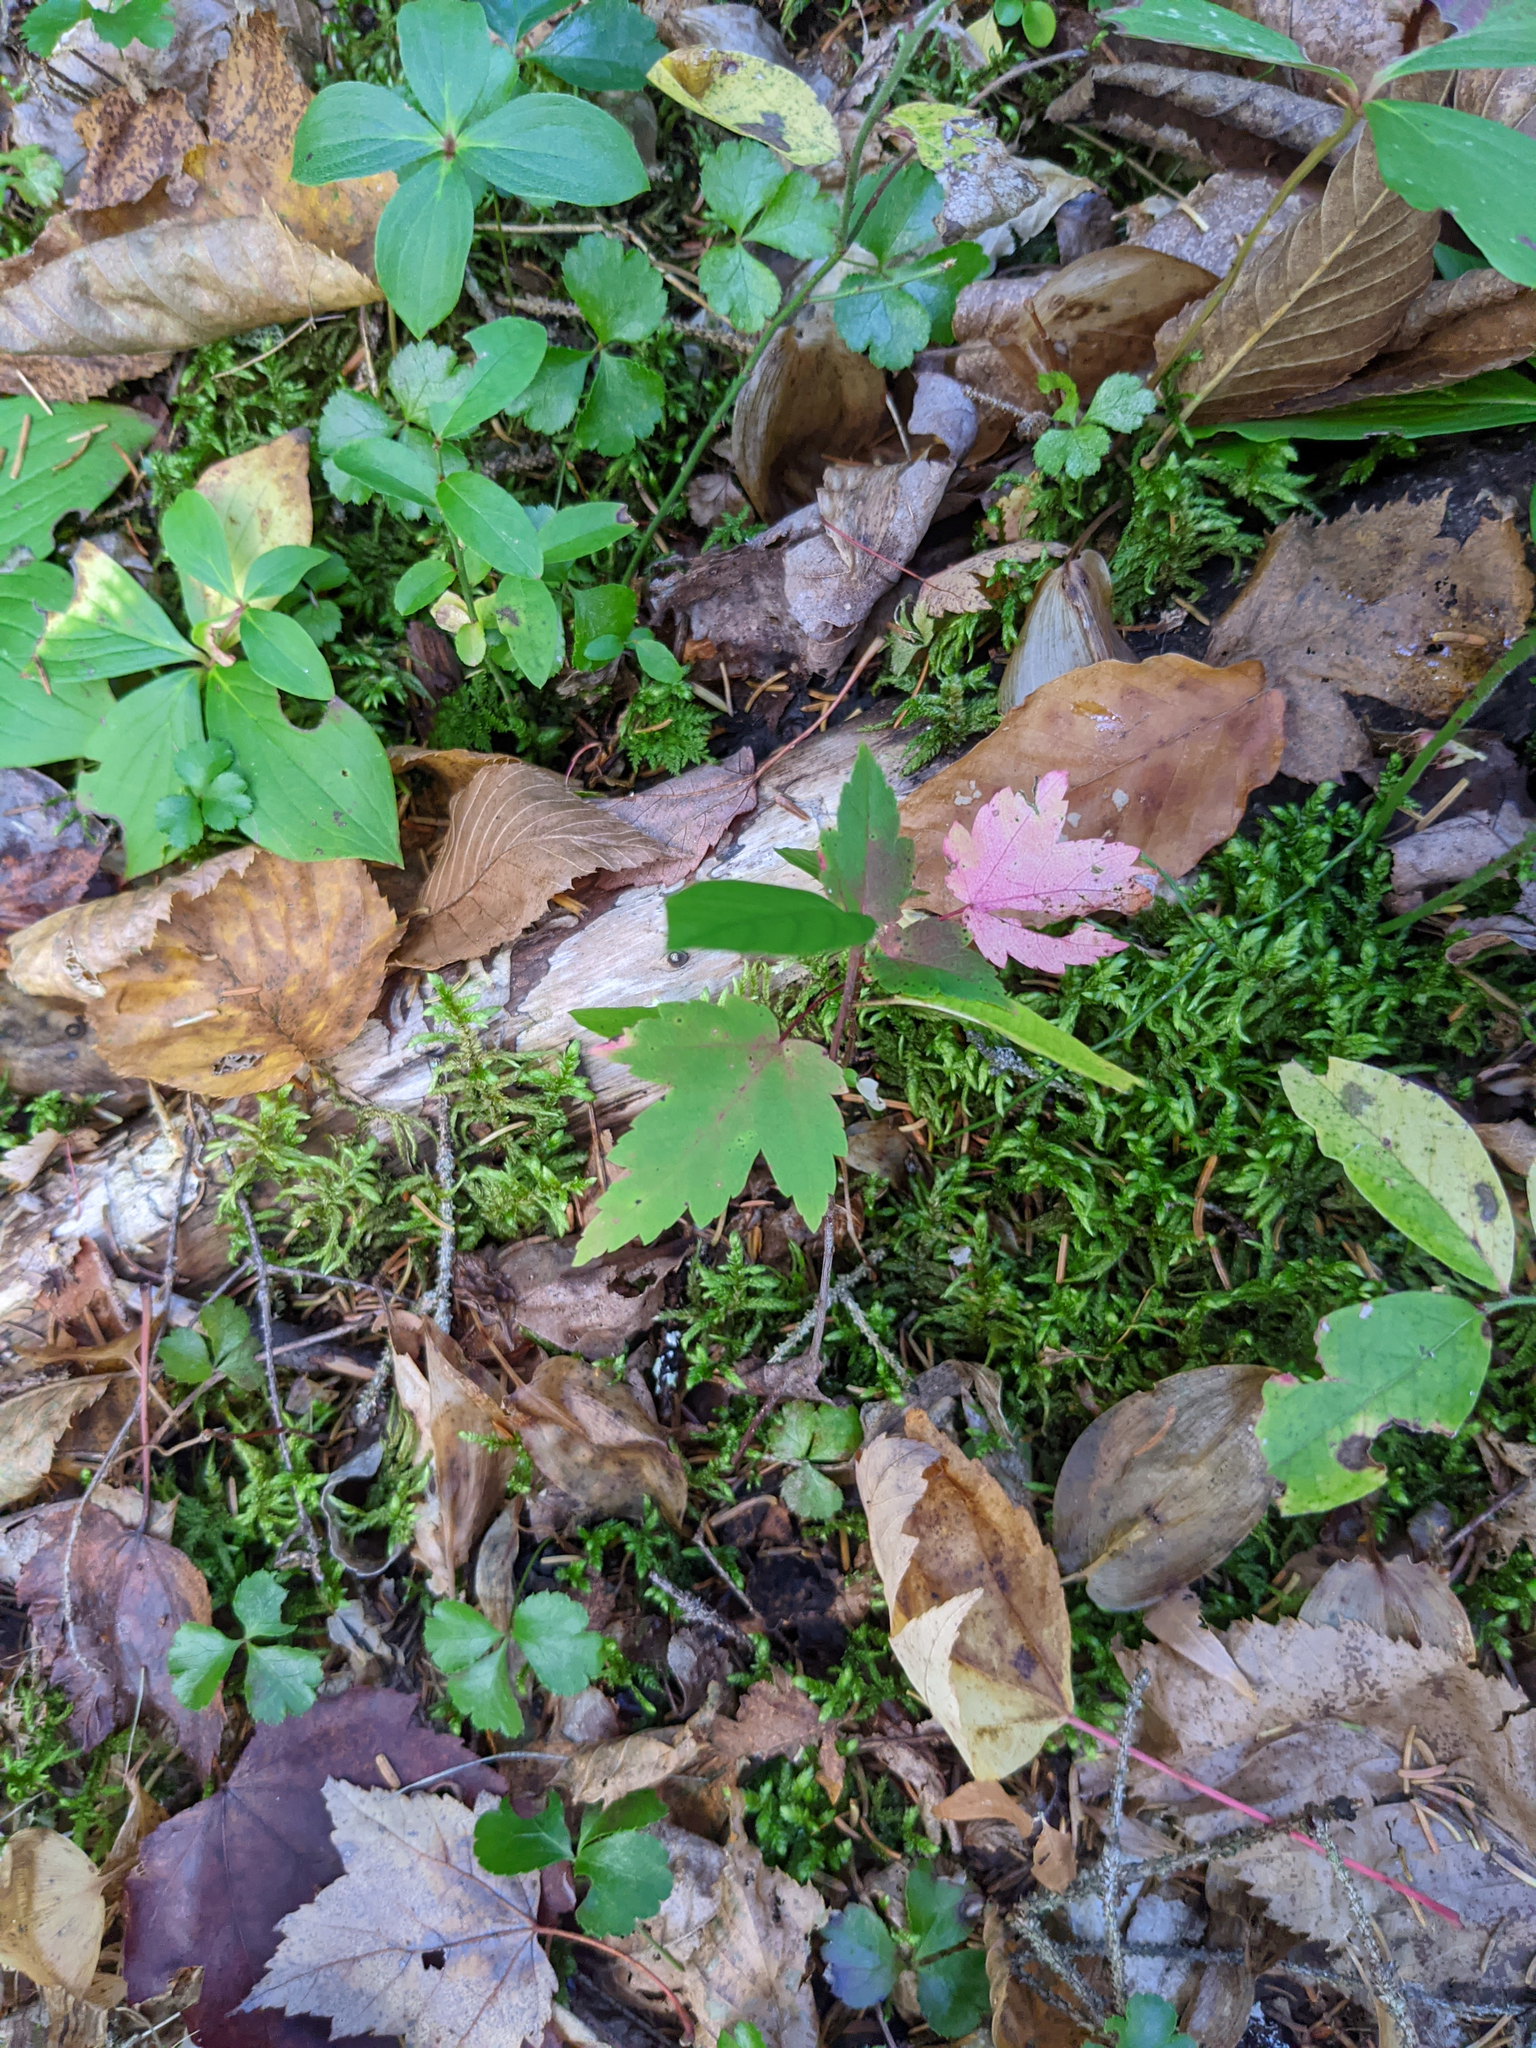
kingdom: Plantae
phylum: Tracheophyta
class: Magnoliopsida
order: Sapindales
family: Sapindaceae
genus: Acer
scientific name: Acer rubrum
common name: Red maple
